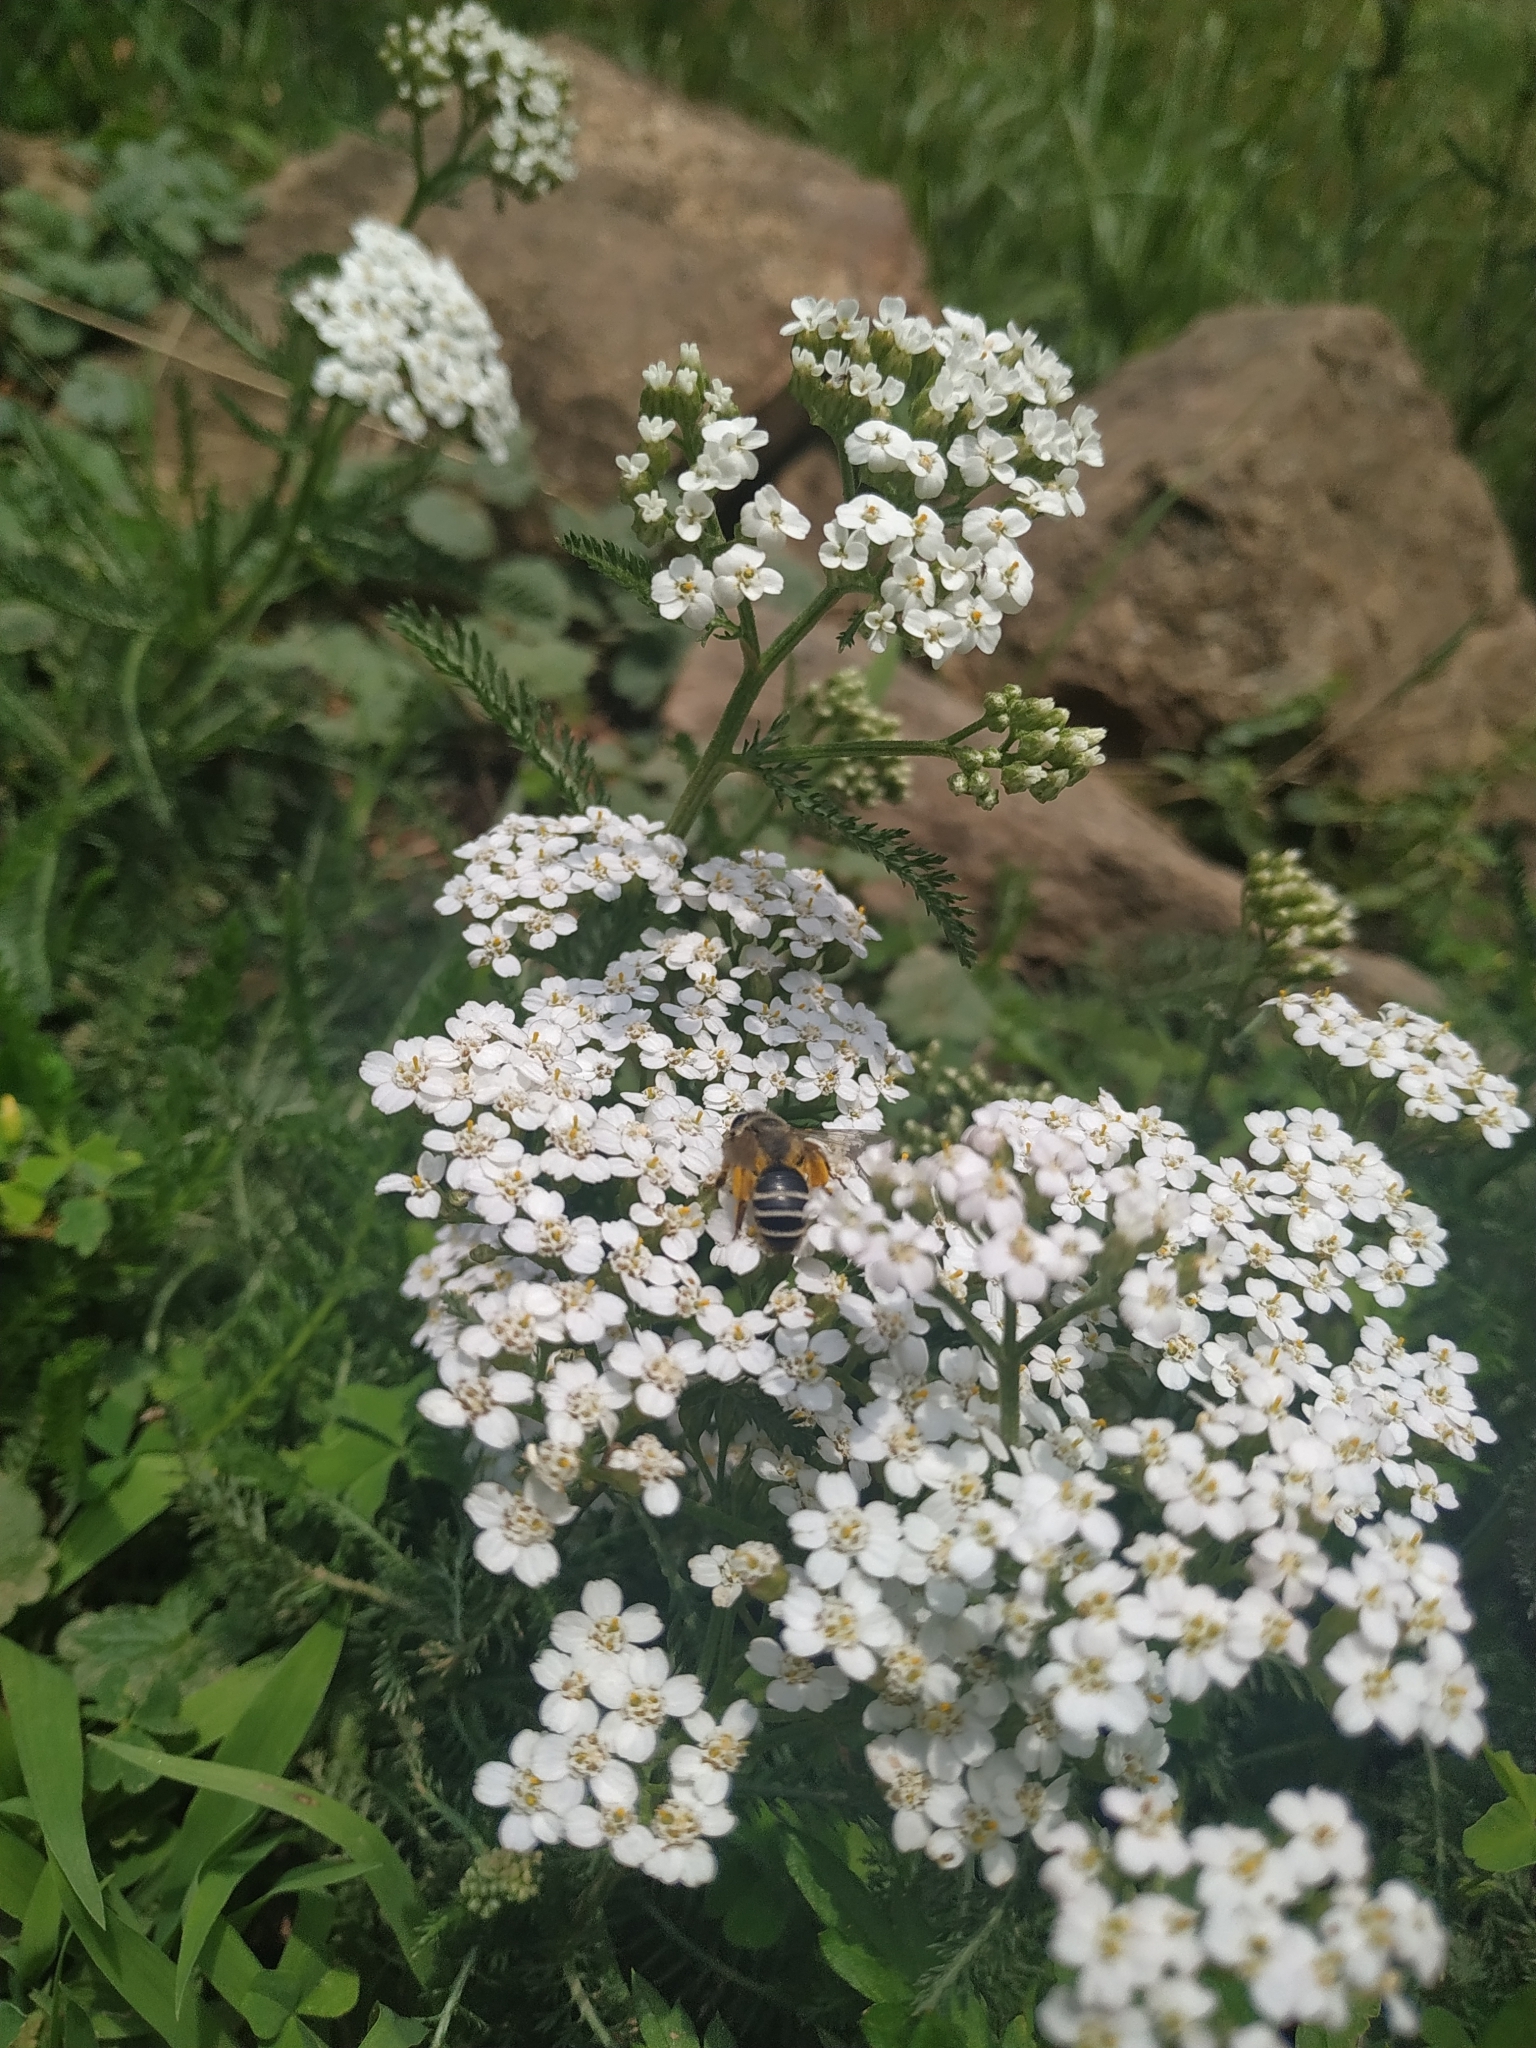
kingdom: Animalia
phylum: Arthropoda
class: Insecta
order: Hymenoptera
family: Andrenidae
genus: Andrena
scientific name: Andrena flavipes
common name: Yellow-legged mining bee
